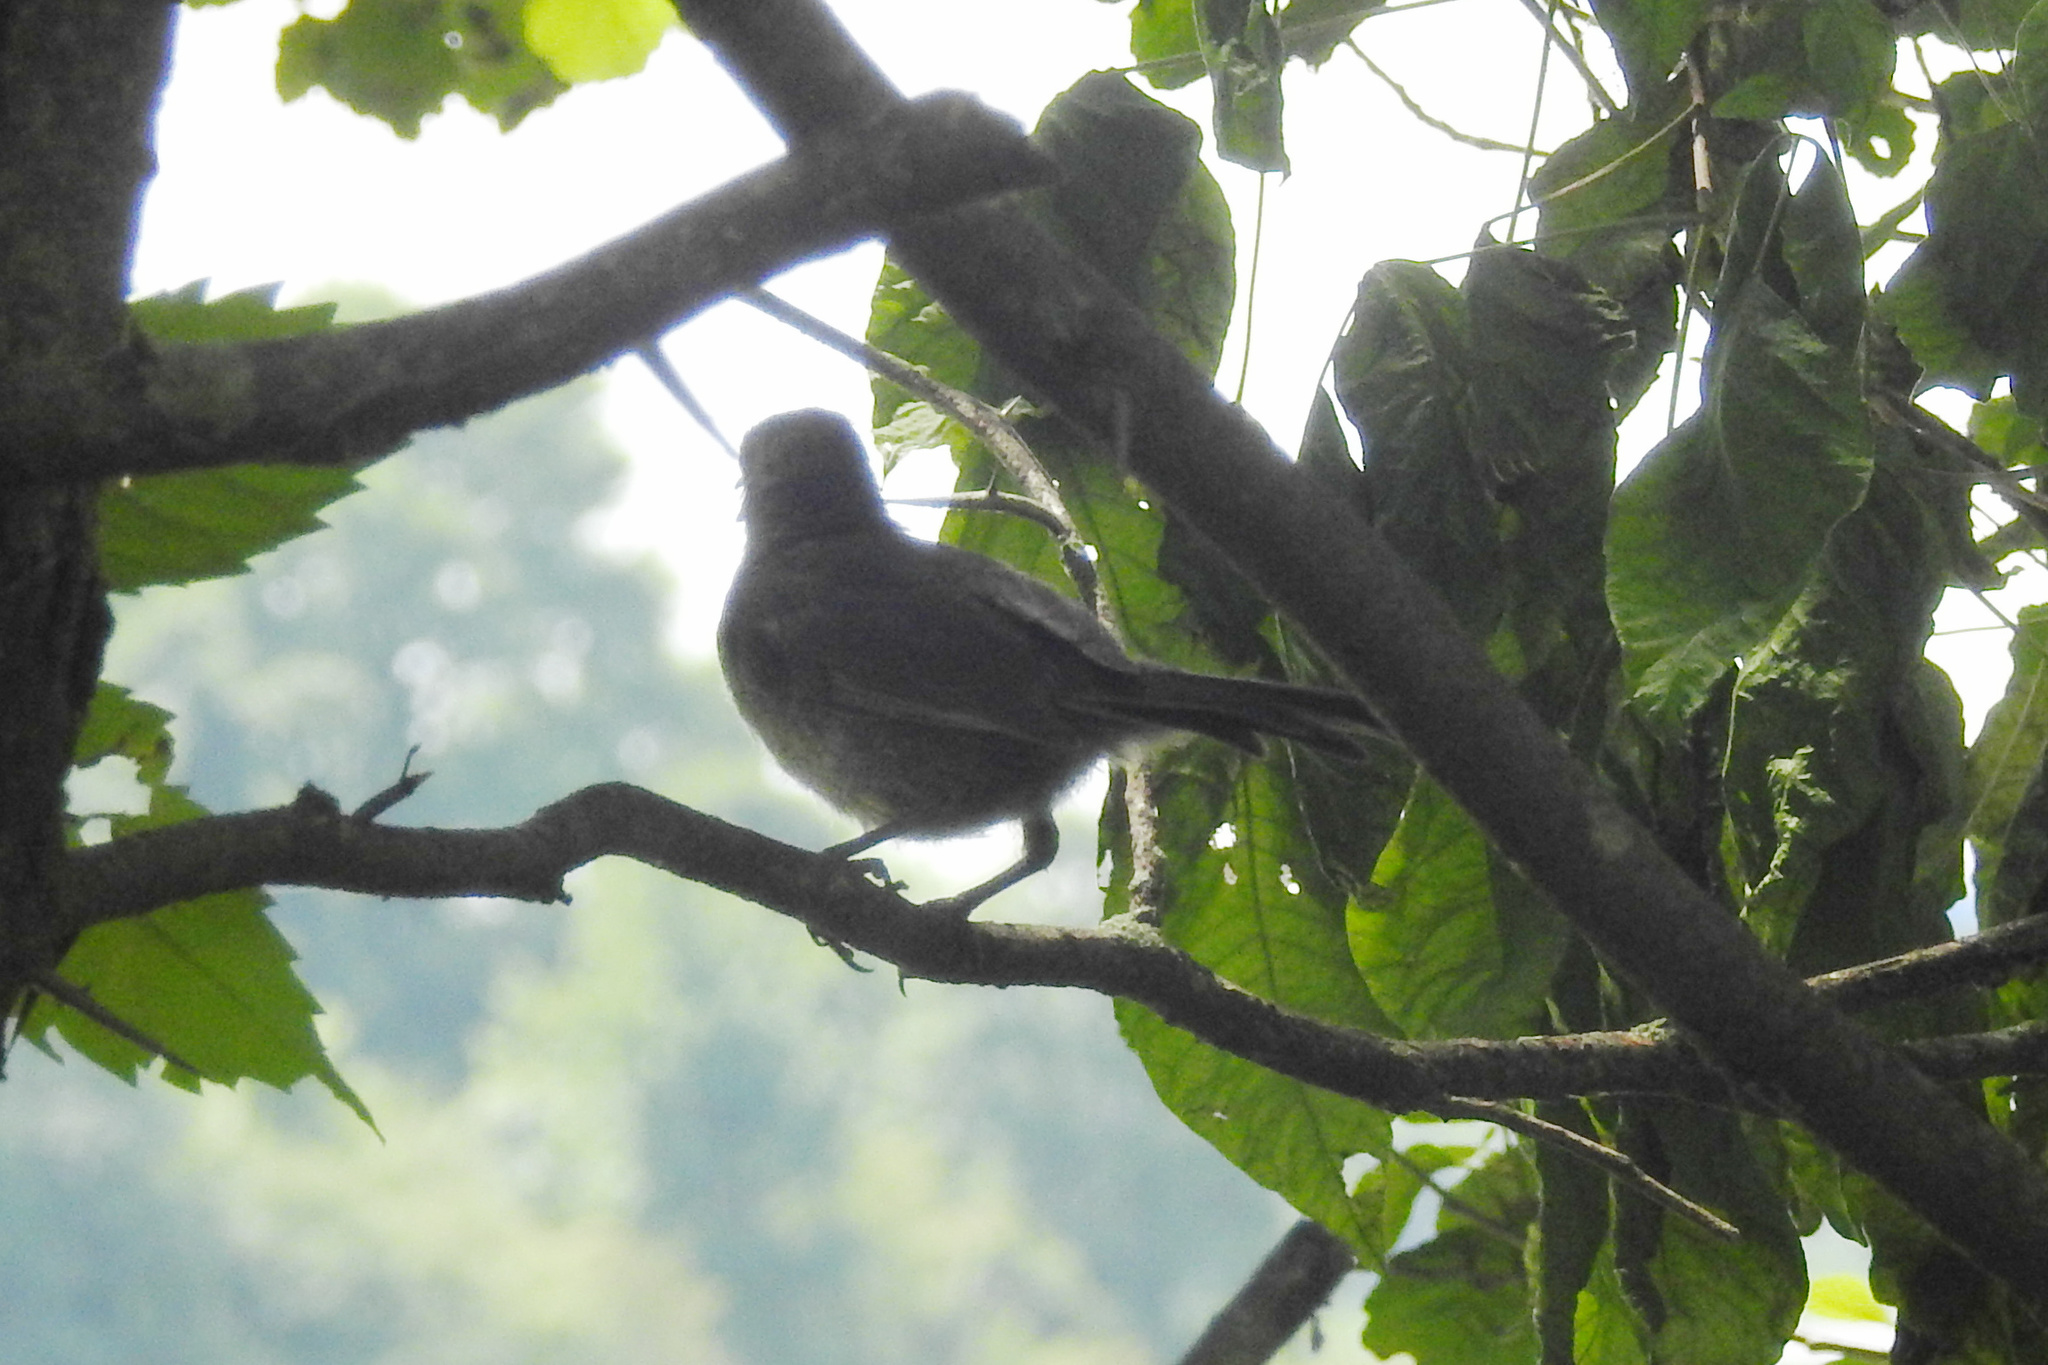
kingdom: Animalia
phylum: Chordata
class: Aves
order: Passeriformes
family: Mimidae
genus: Dumetella
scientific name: Dumetella carolinensis
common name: Gray catbird
